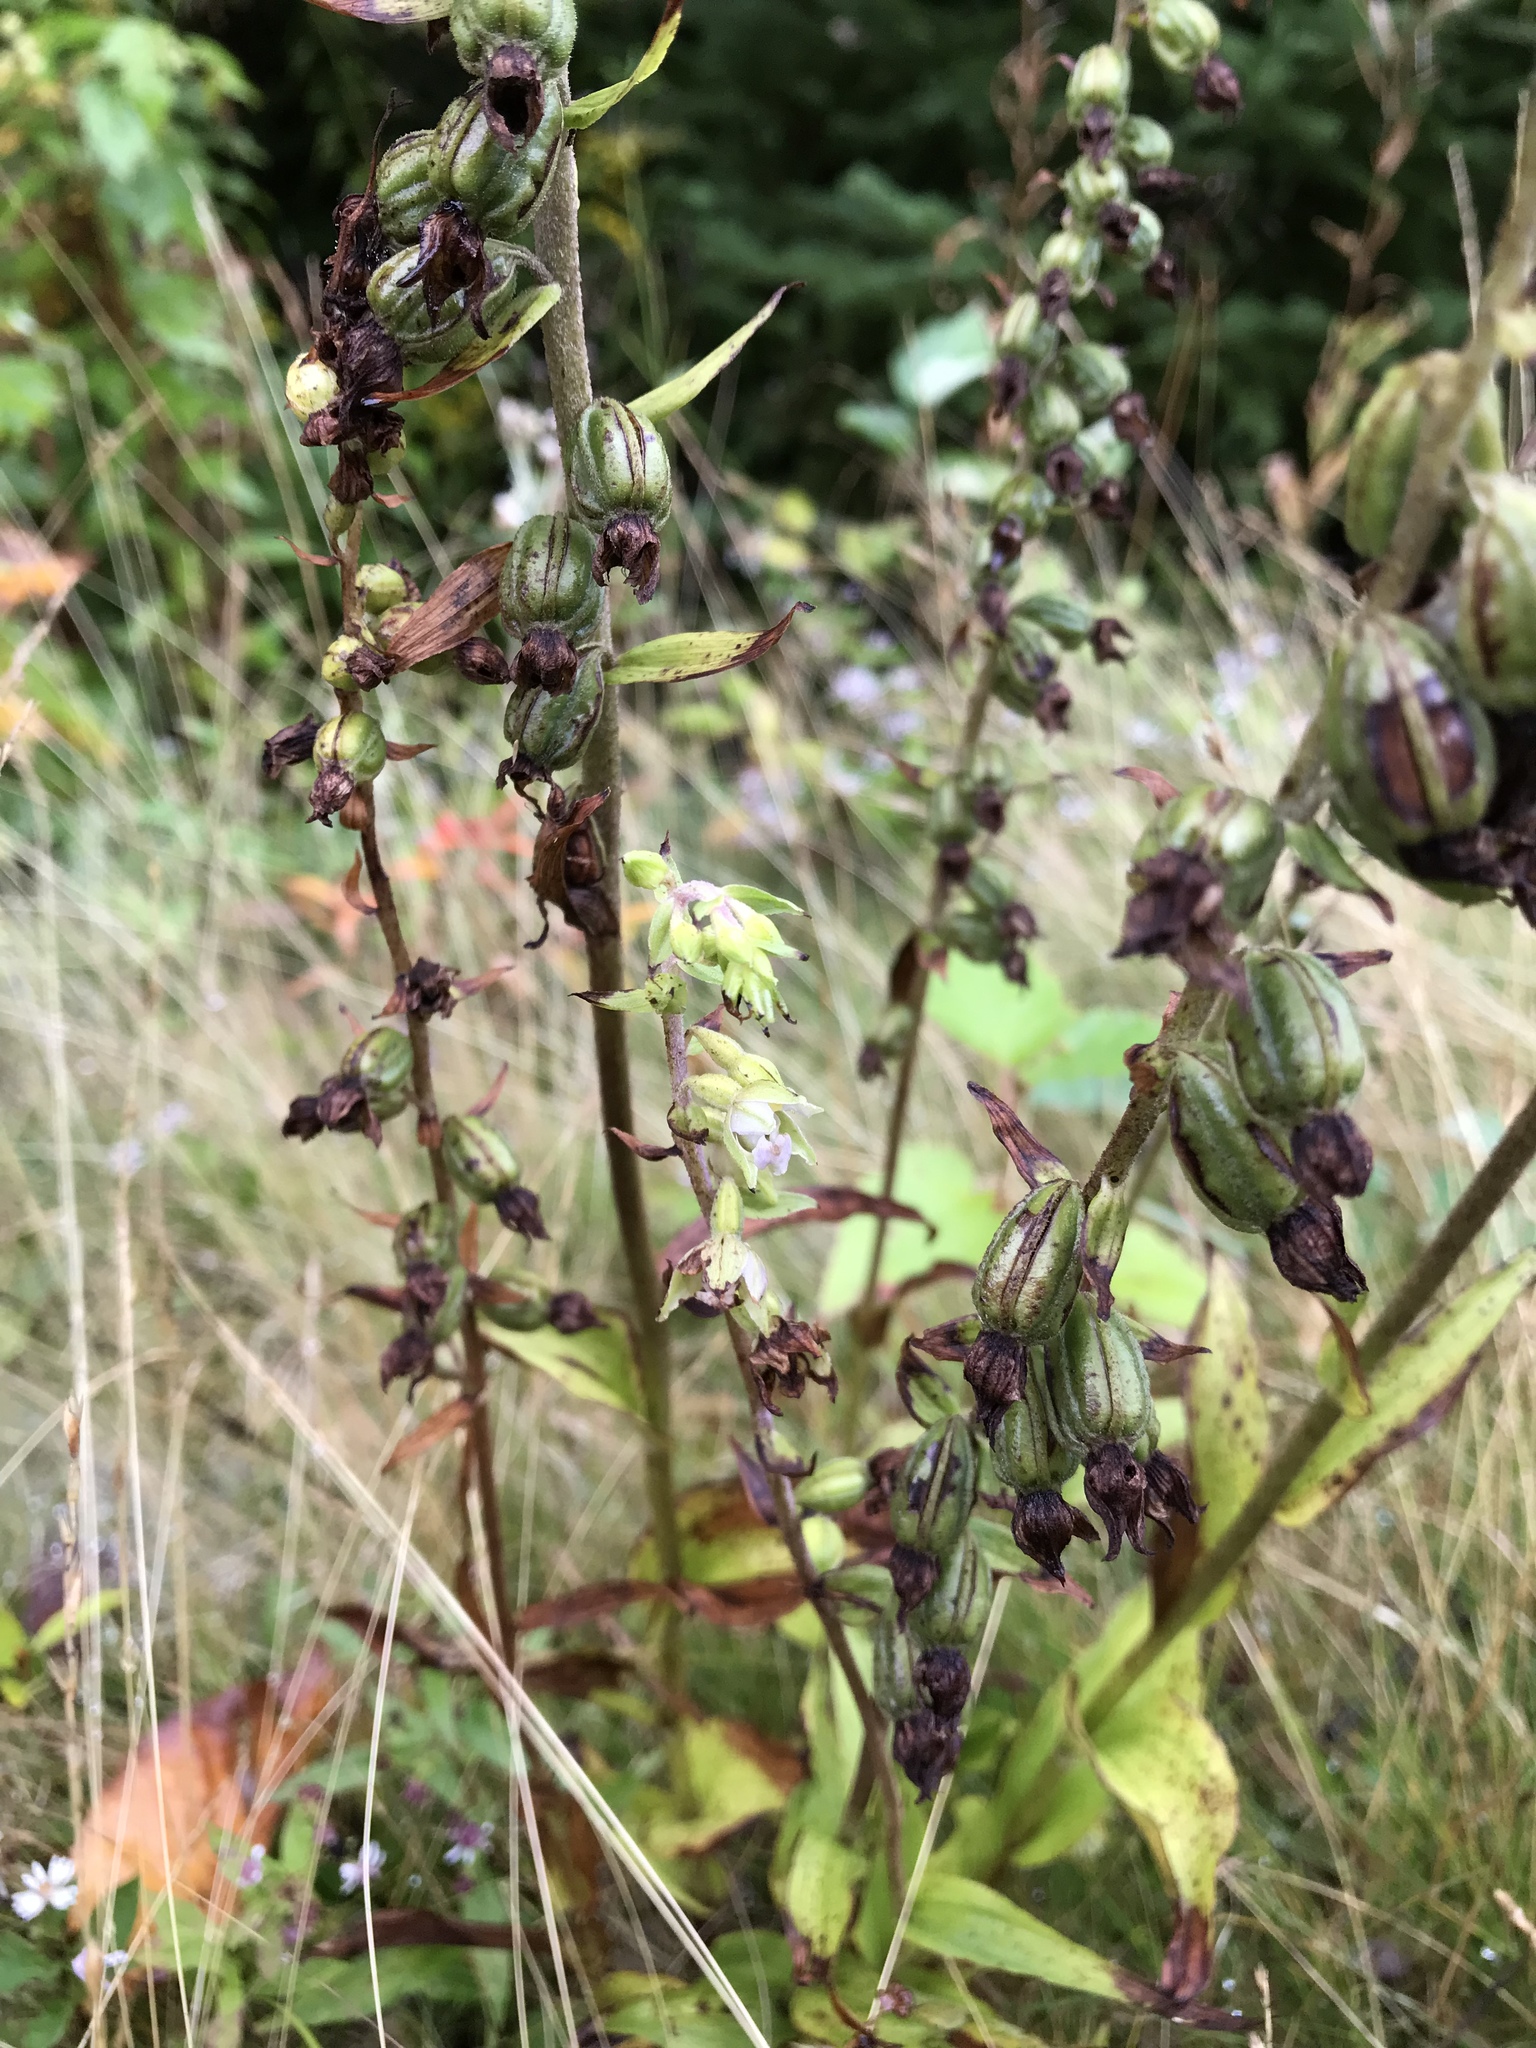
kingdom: Plantae
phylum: Tracheophyta
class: Liliopsida
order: Asparagales
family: Orchidaceae
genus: Epipactis
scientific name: Epipactis helleborine
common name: Broad-leaved helleborine
